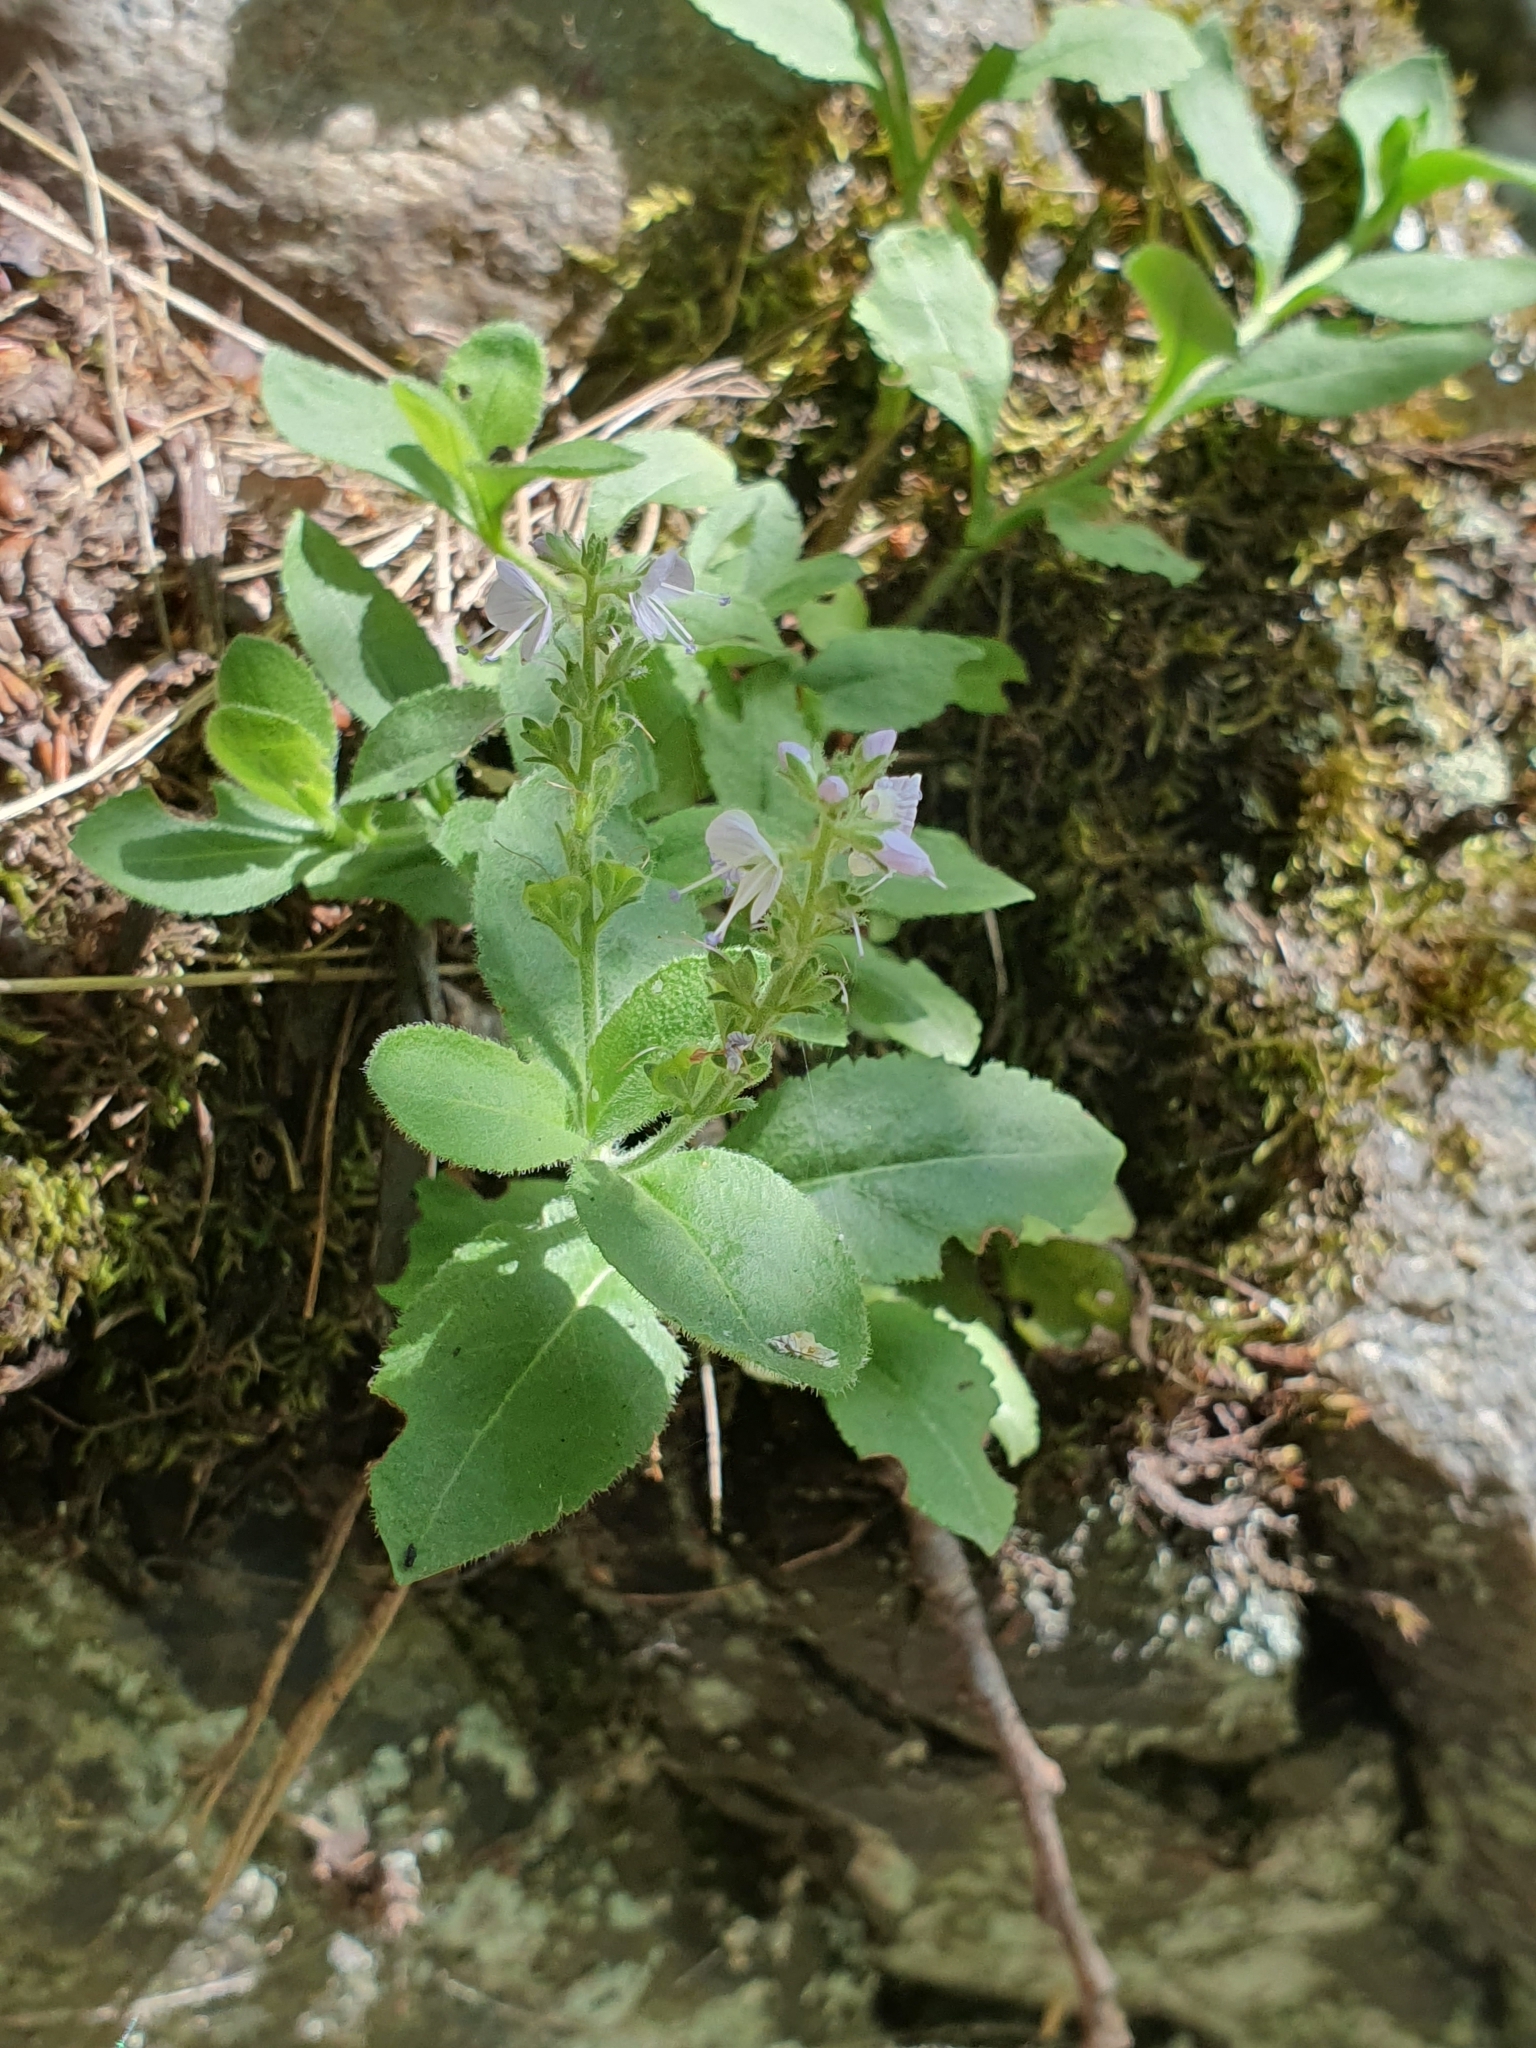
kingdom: Plantae
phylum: Tracheophyta
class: Magnoliopsida
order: Lamiales
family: Plantaginaceae
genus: Veronica
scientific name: Veronica officinalis
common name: Common speedwell
